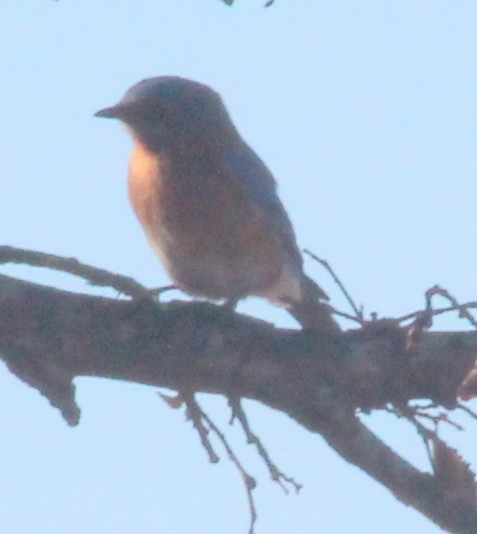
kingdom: Animalia
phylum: Chordata
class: Aves
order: Passeriformes
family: Turdidae
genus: Sialia
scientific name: Sialia sialis
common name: Eastern bluebird
